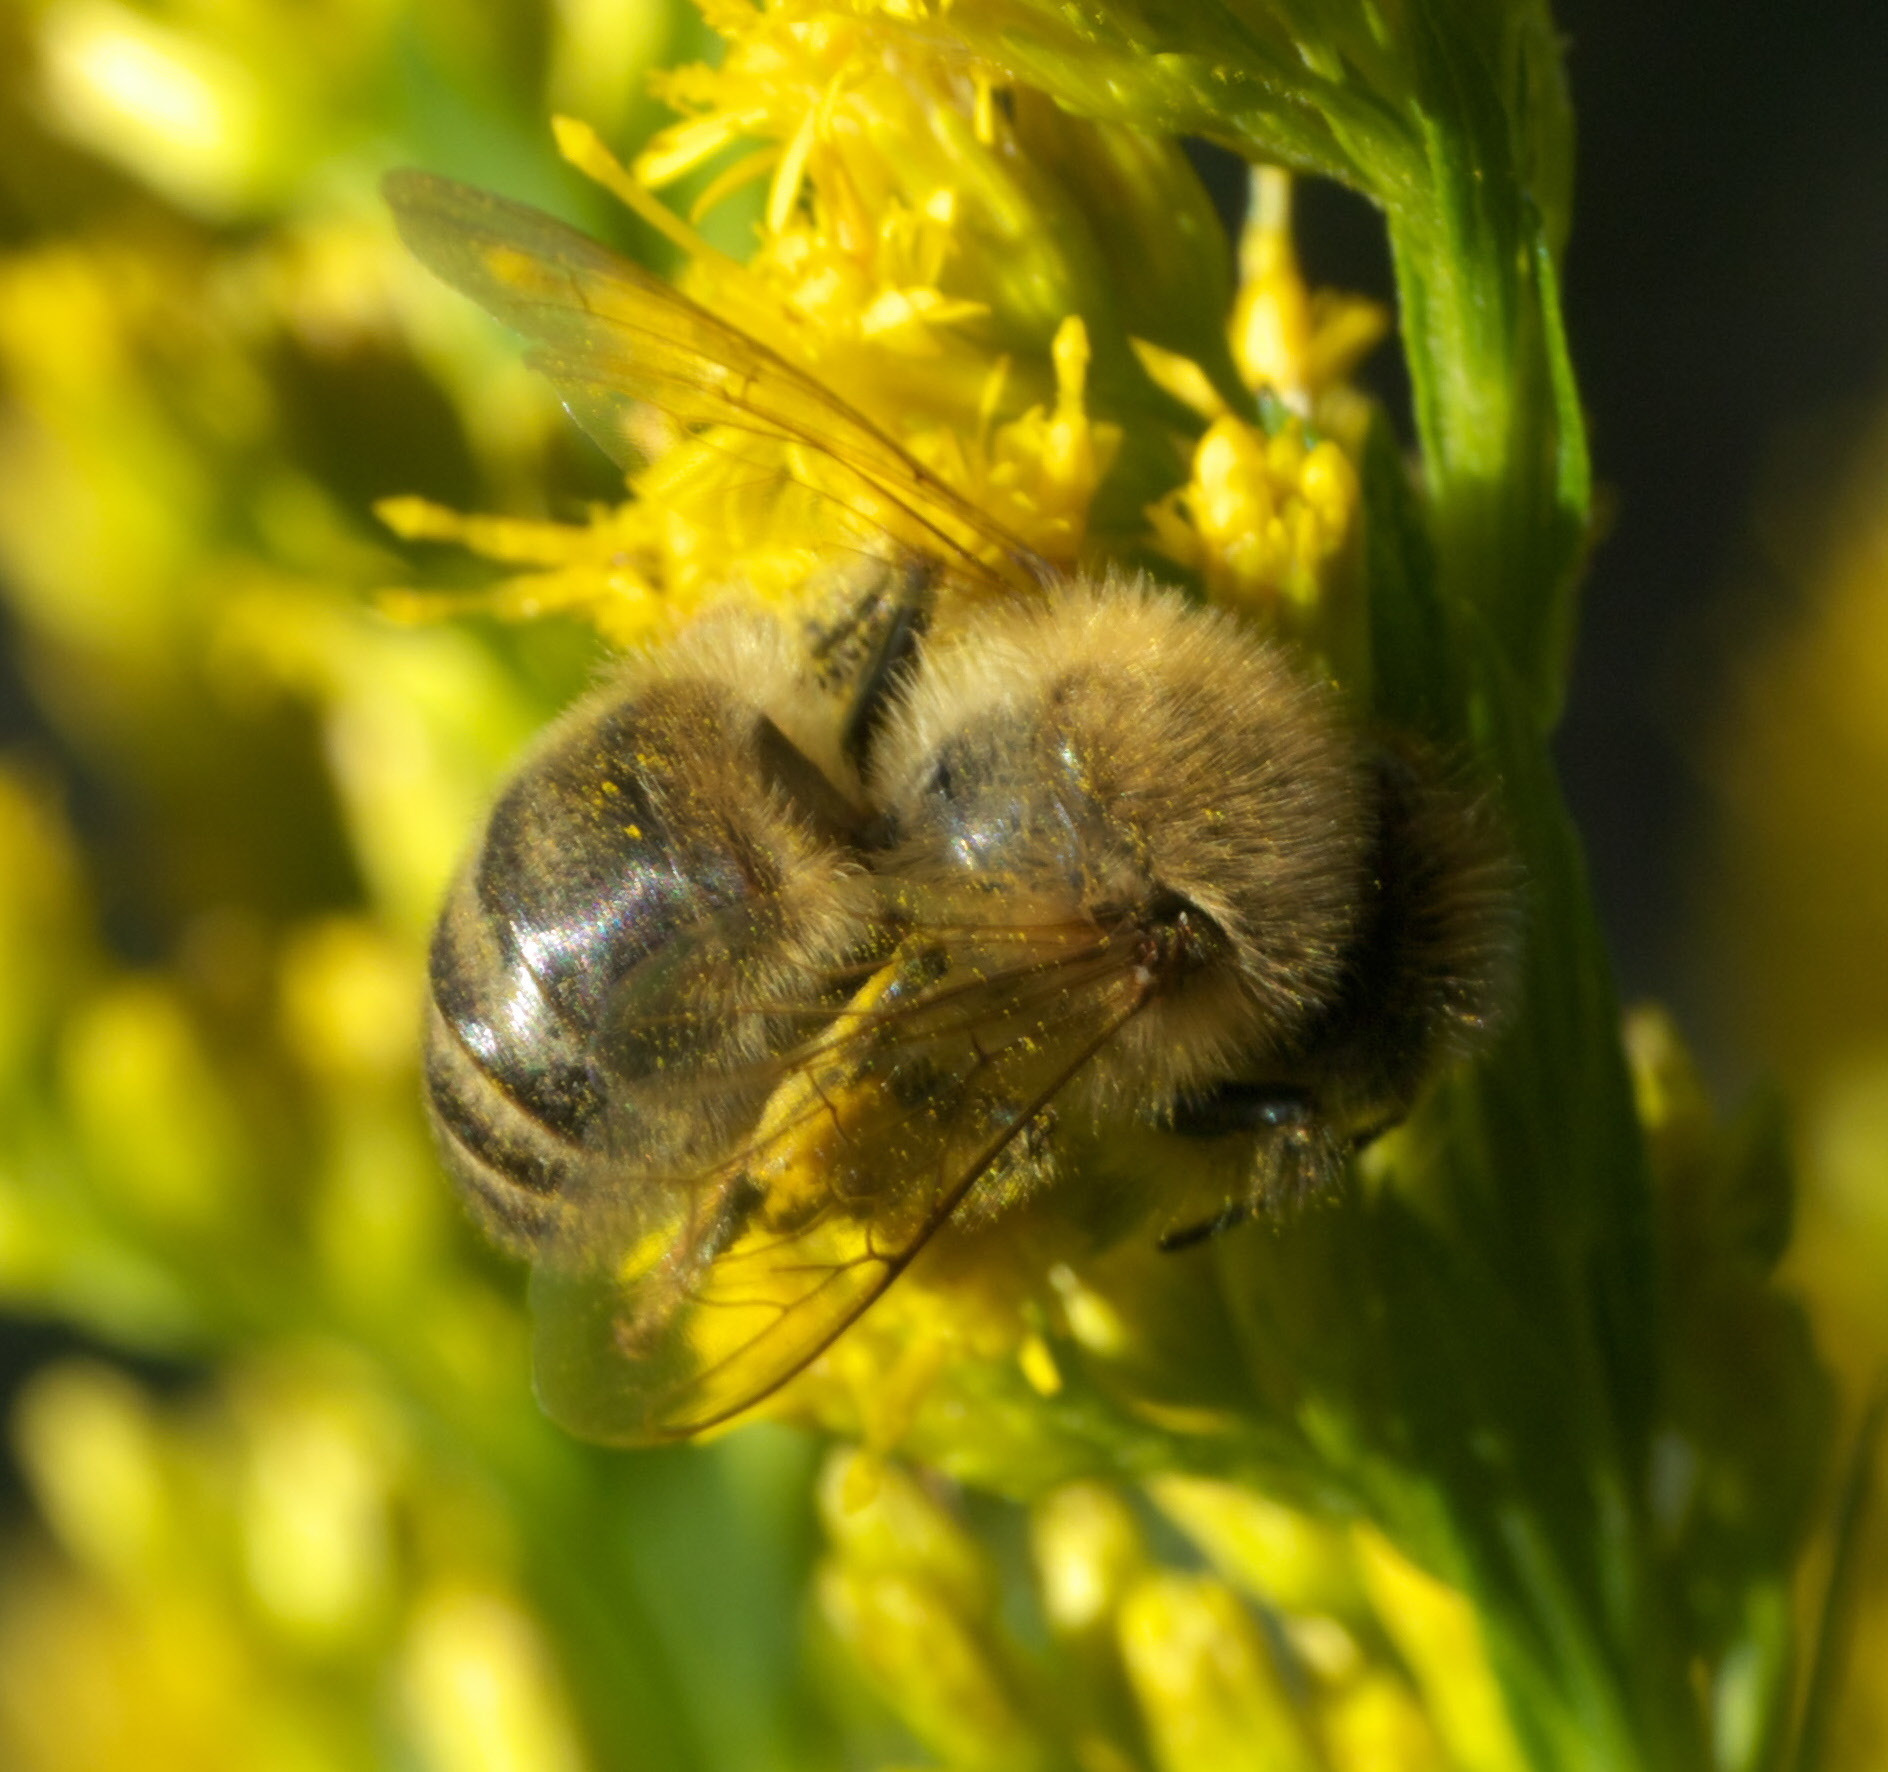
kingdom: Animalia
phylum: Arthropoda
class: Insecta
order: Hymenoptera
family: Apidae
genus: Apis
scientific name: Apis mellifera
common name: Honey bee
